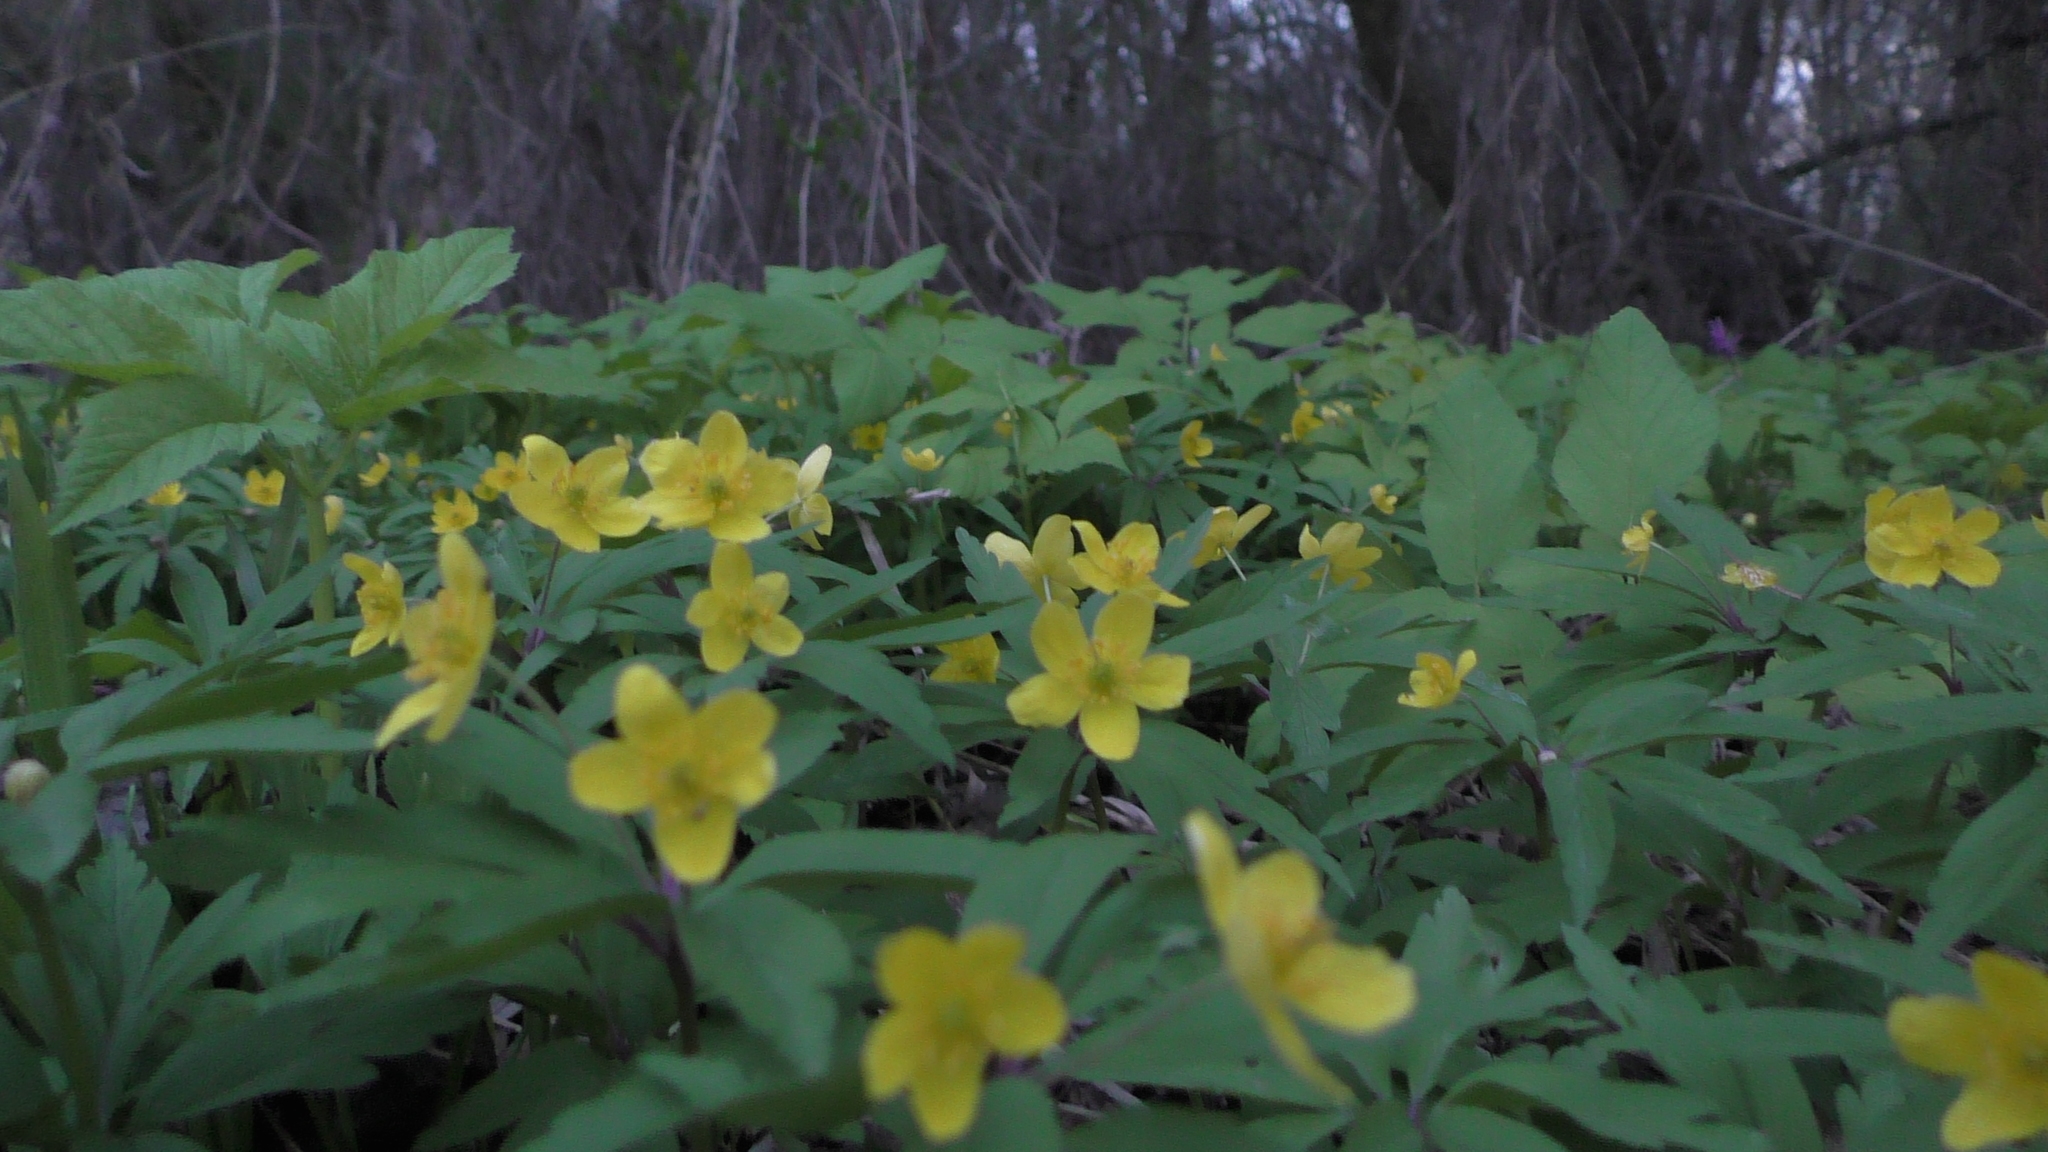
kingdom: Plantae
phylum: Tracheophyta
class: Magnoliopsida
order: Ranunculales
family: Ranunculaceae
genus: Anemone
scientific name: Anemone ranunculoides
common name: Yellow anemone
